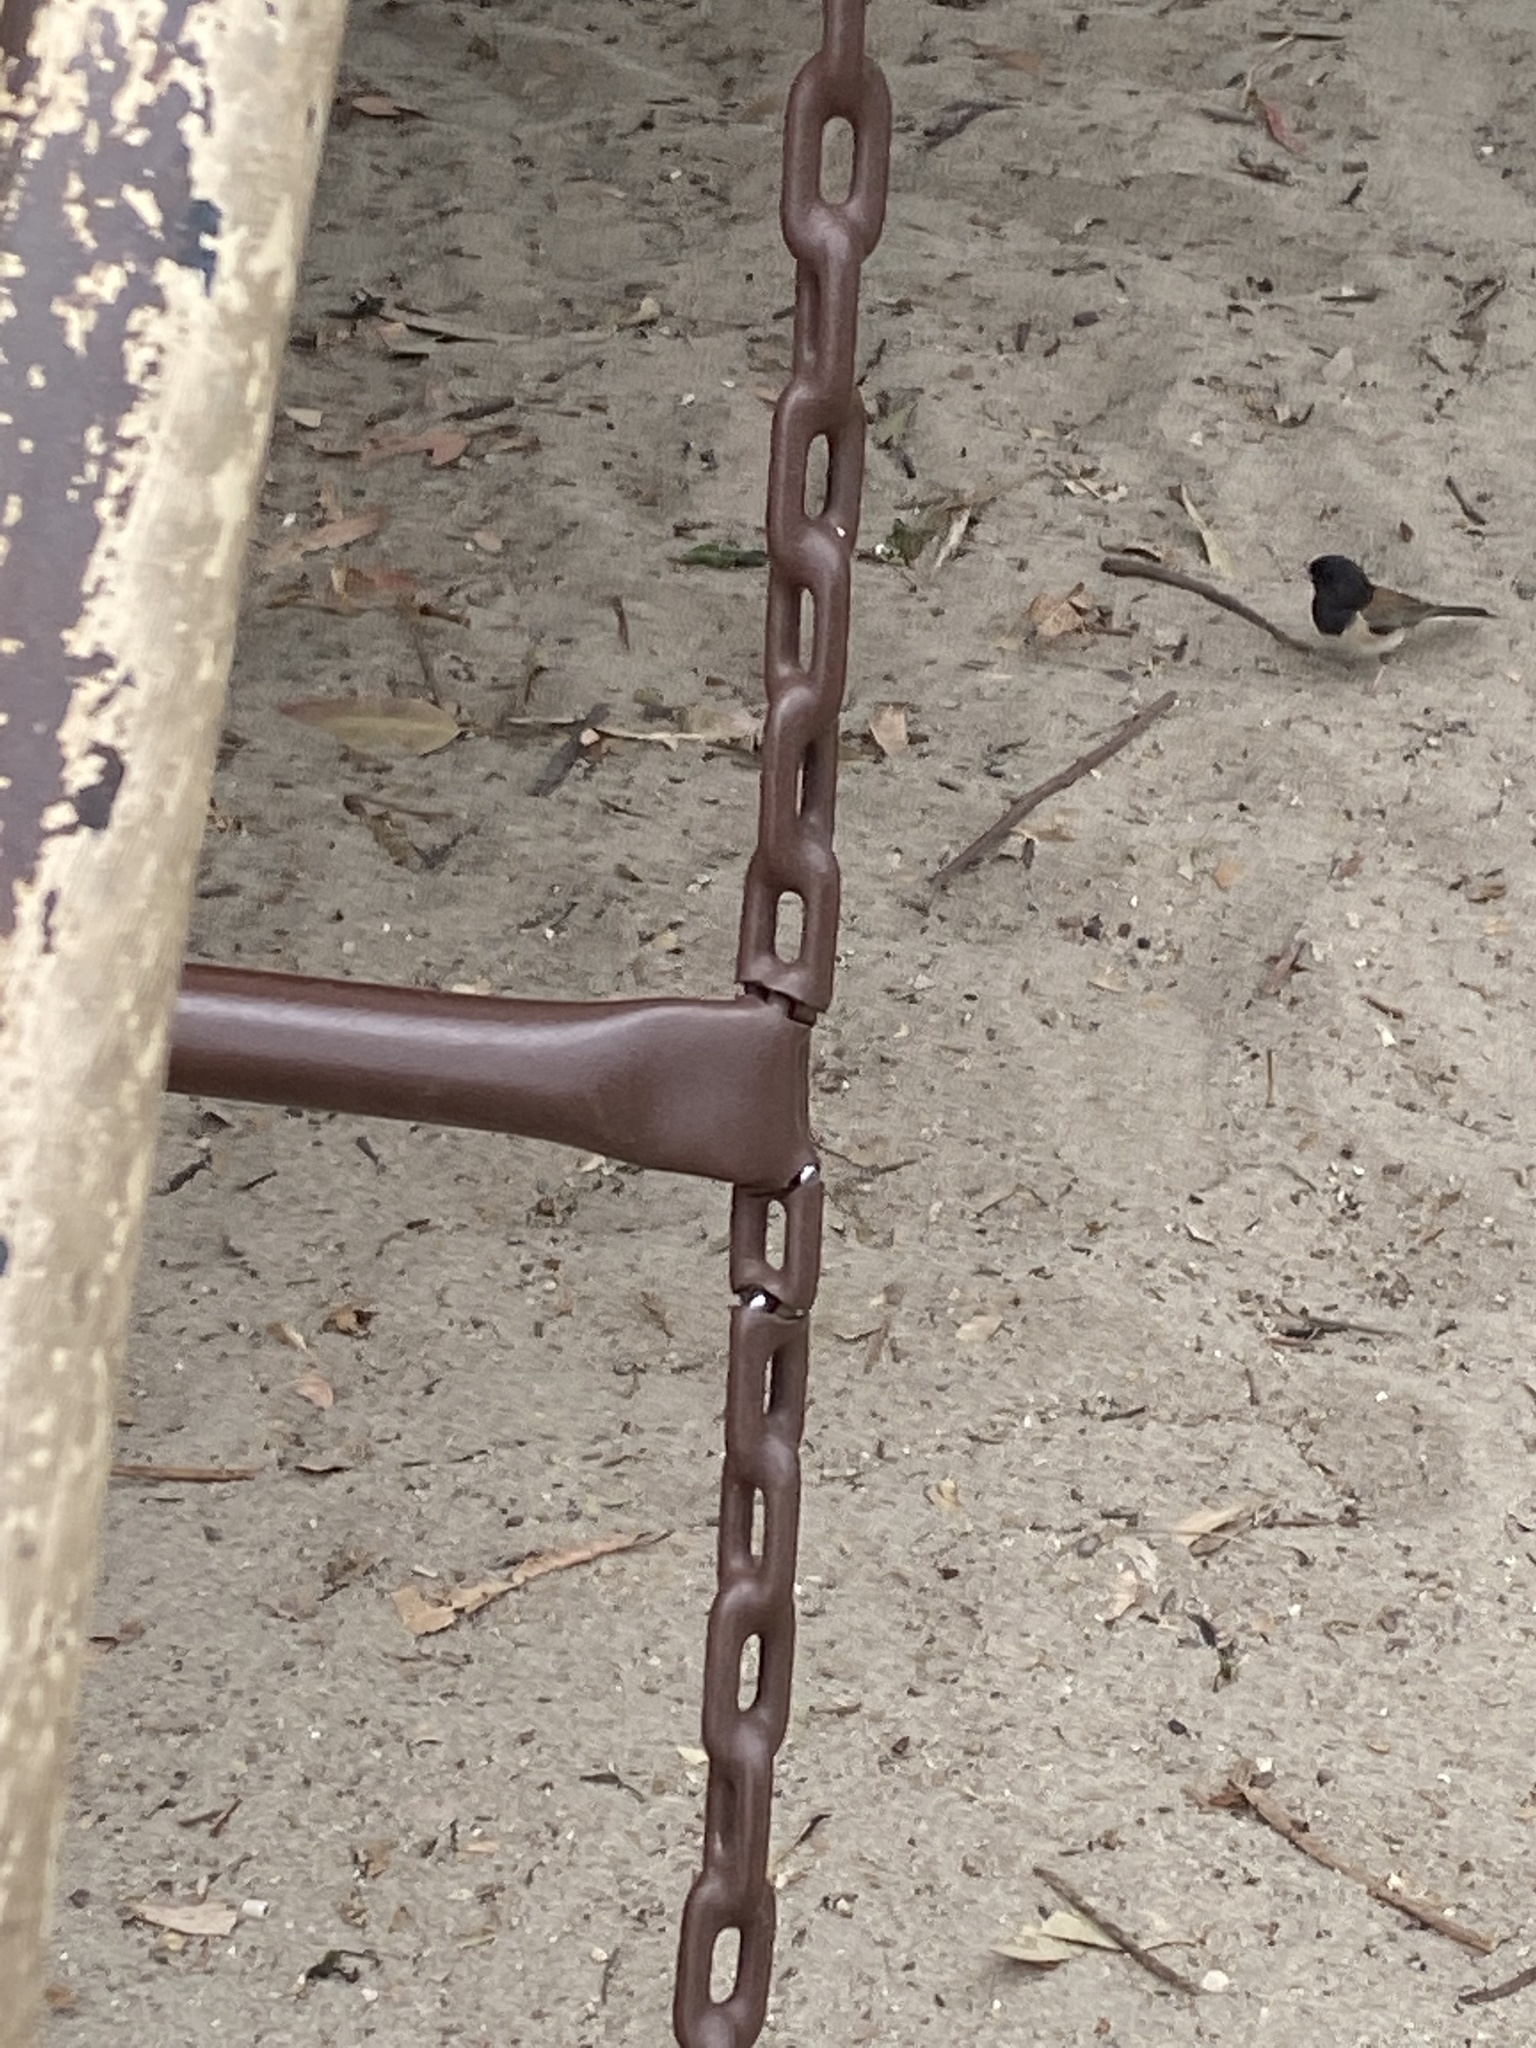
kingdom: Animalia
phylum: Chordata
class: Aves
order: Passeriformes
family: Passerellidae
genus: Junco
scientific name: Junco hyemalis
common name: Dark-eyed junco
